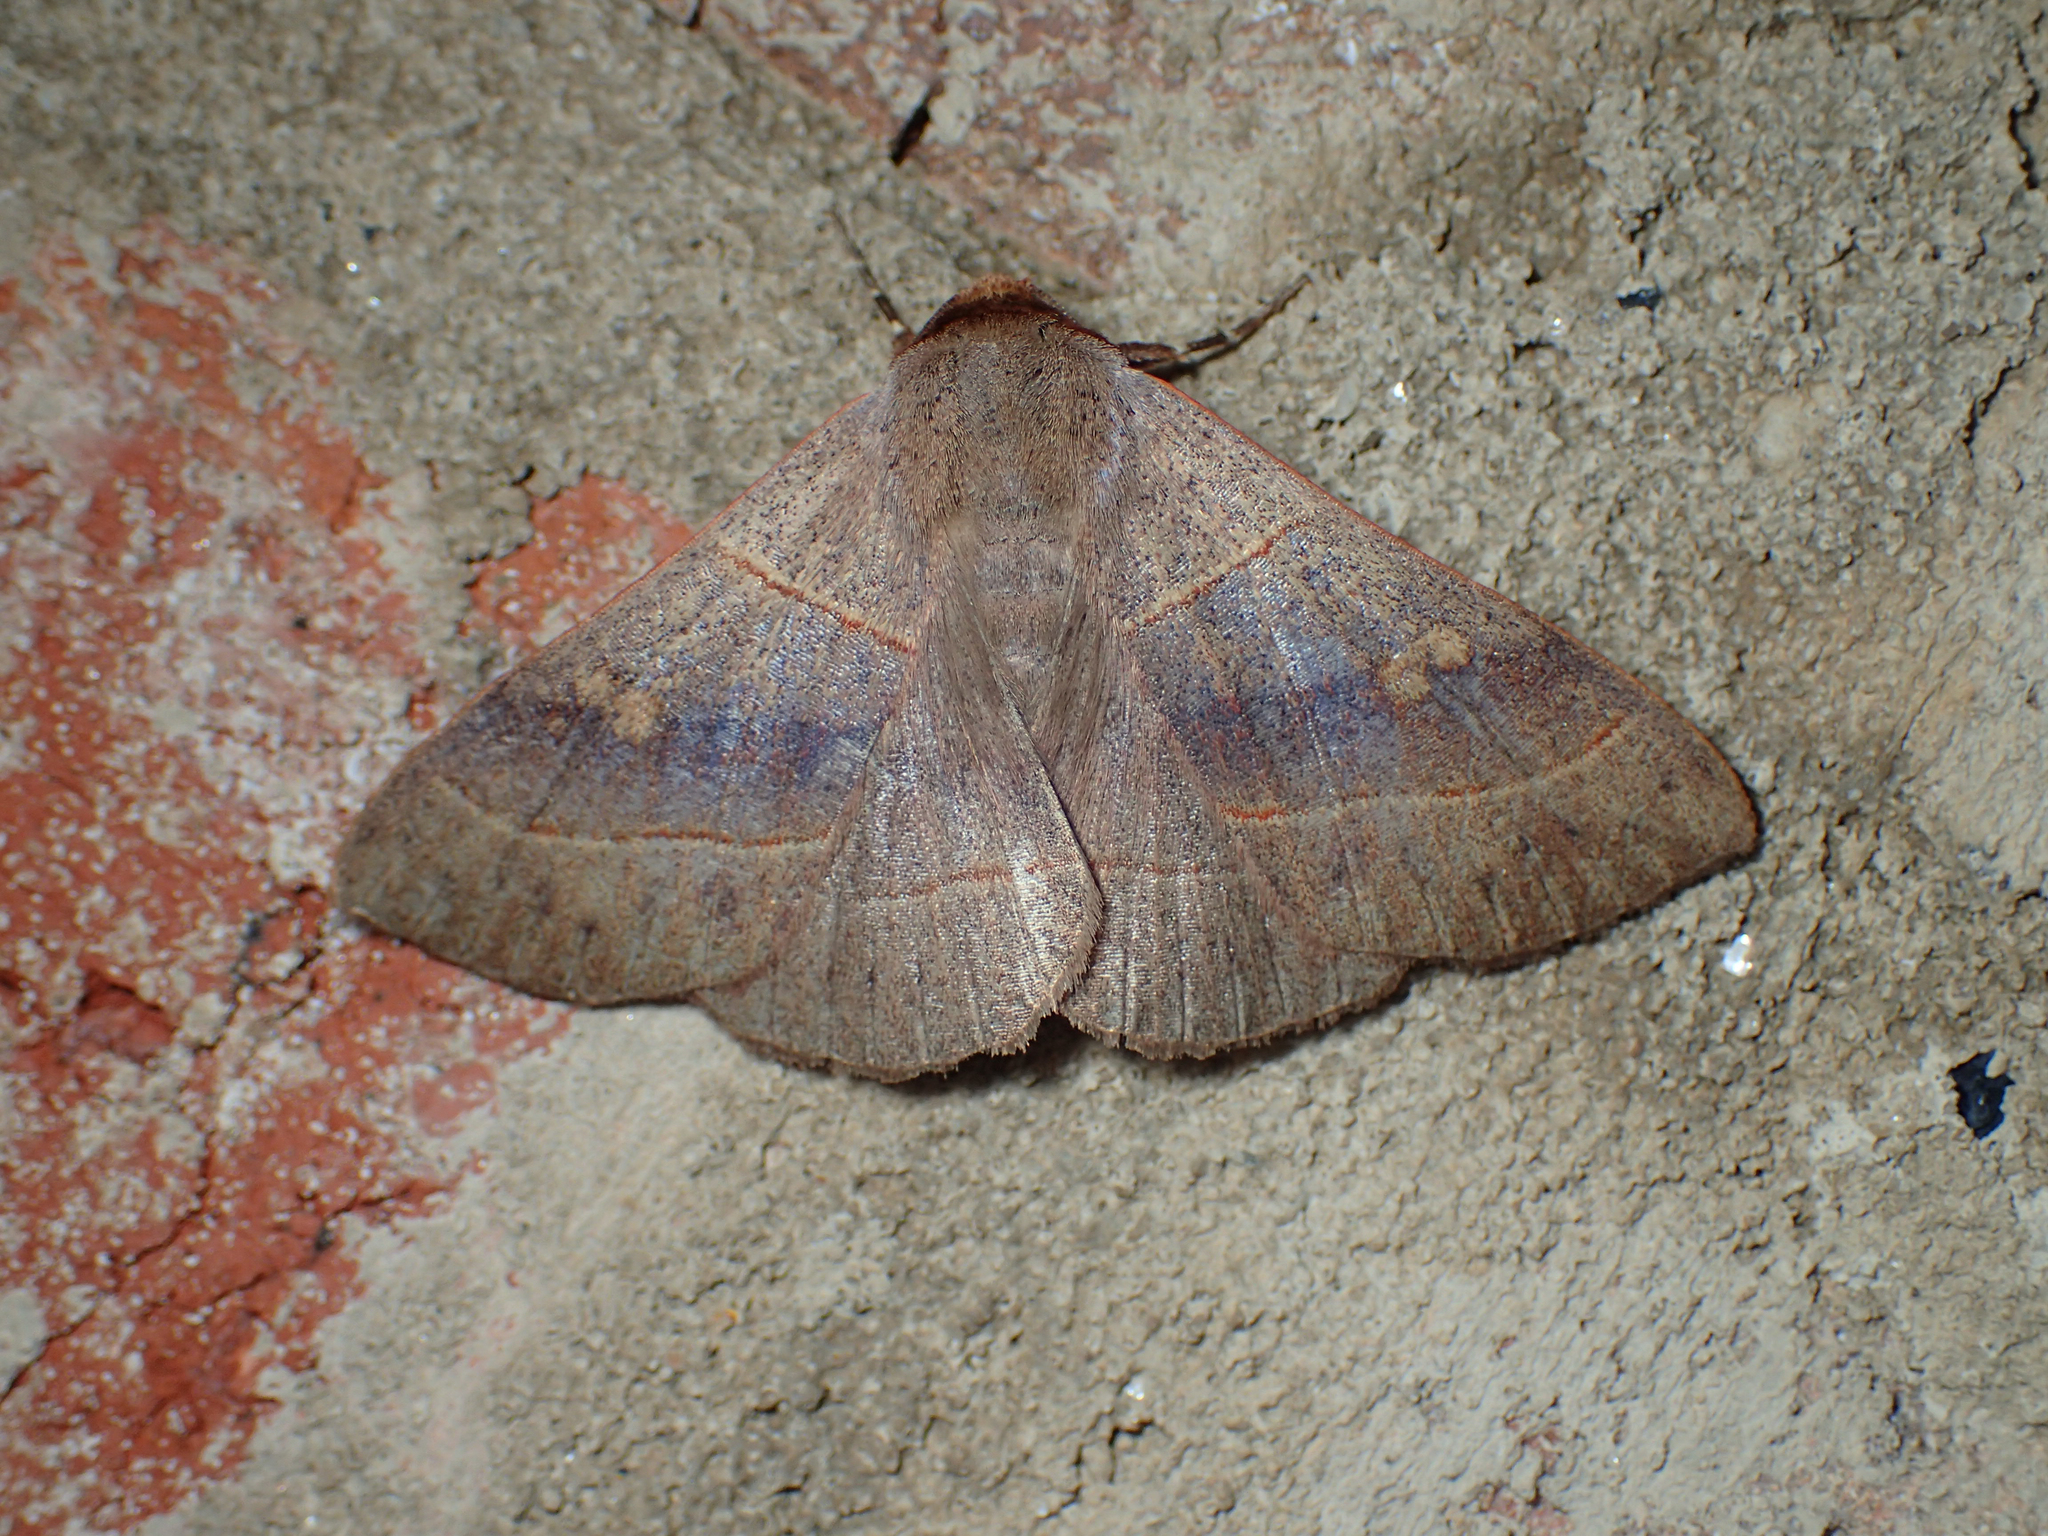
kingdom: Animalia
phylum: Arthropoda
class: Insecta
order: Lepidoptera
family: Erebidae
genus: Panopoda
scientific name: Panopoda rufimargo
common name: Red-lined panopoda moth
